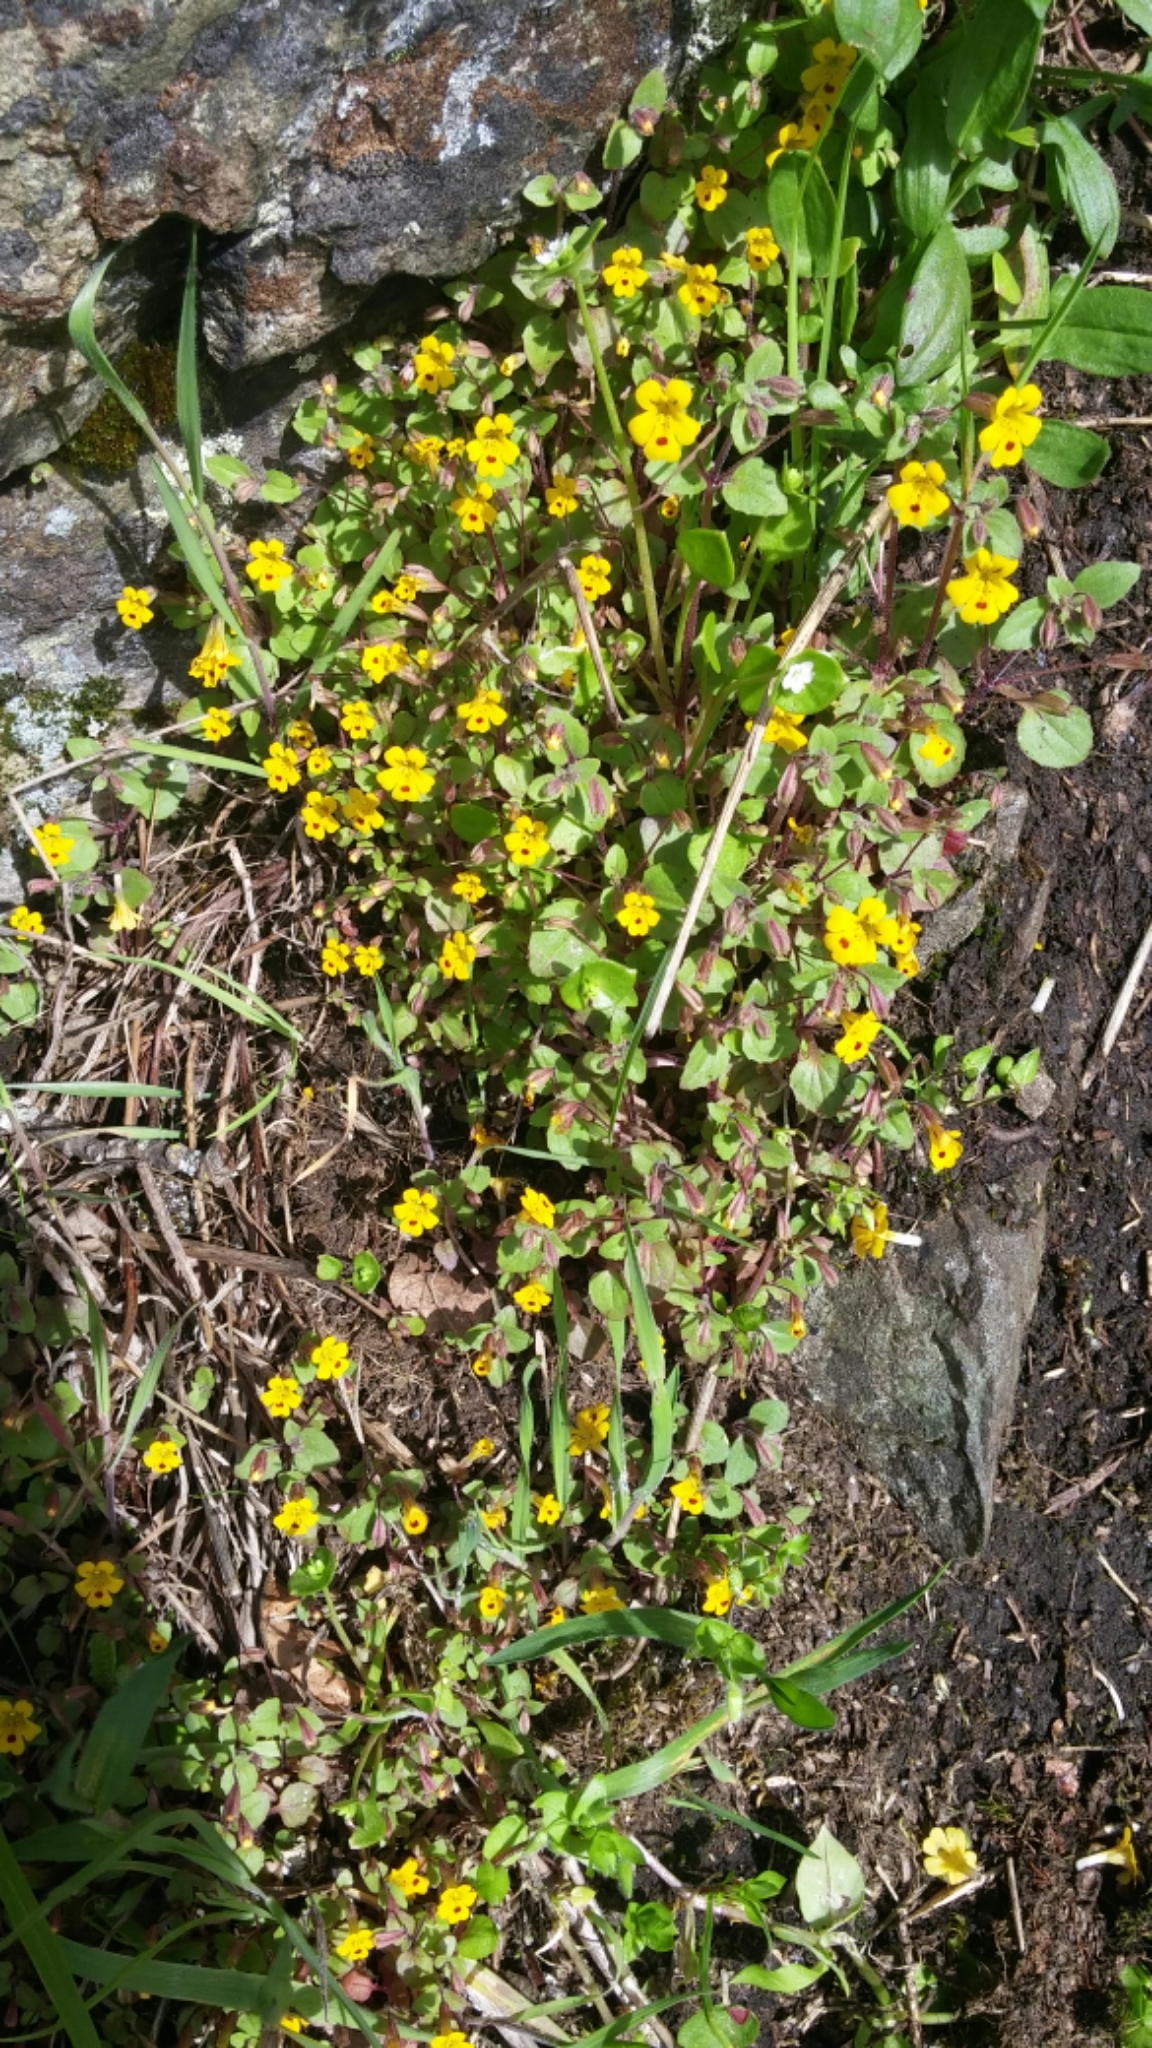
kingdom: Plantae
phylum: Tracheophyta
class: Magnoliopsida
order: Lamiales
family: Phrymaceae
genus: Erythranthe
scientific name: Erythranthe alsinoides
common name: Chickweed monkeyflower
